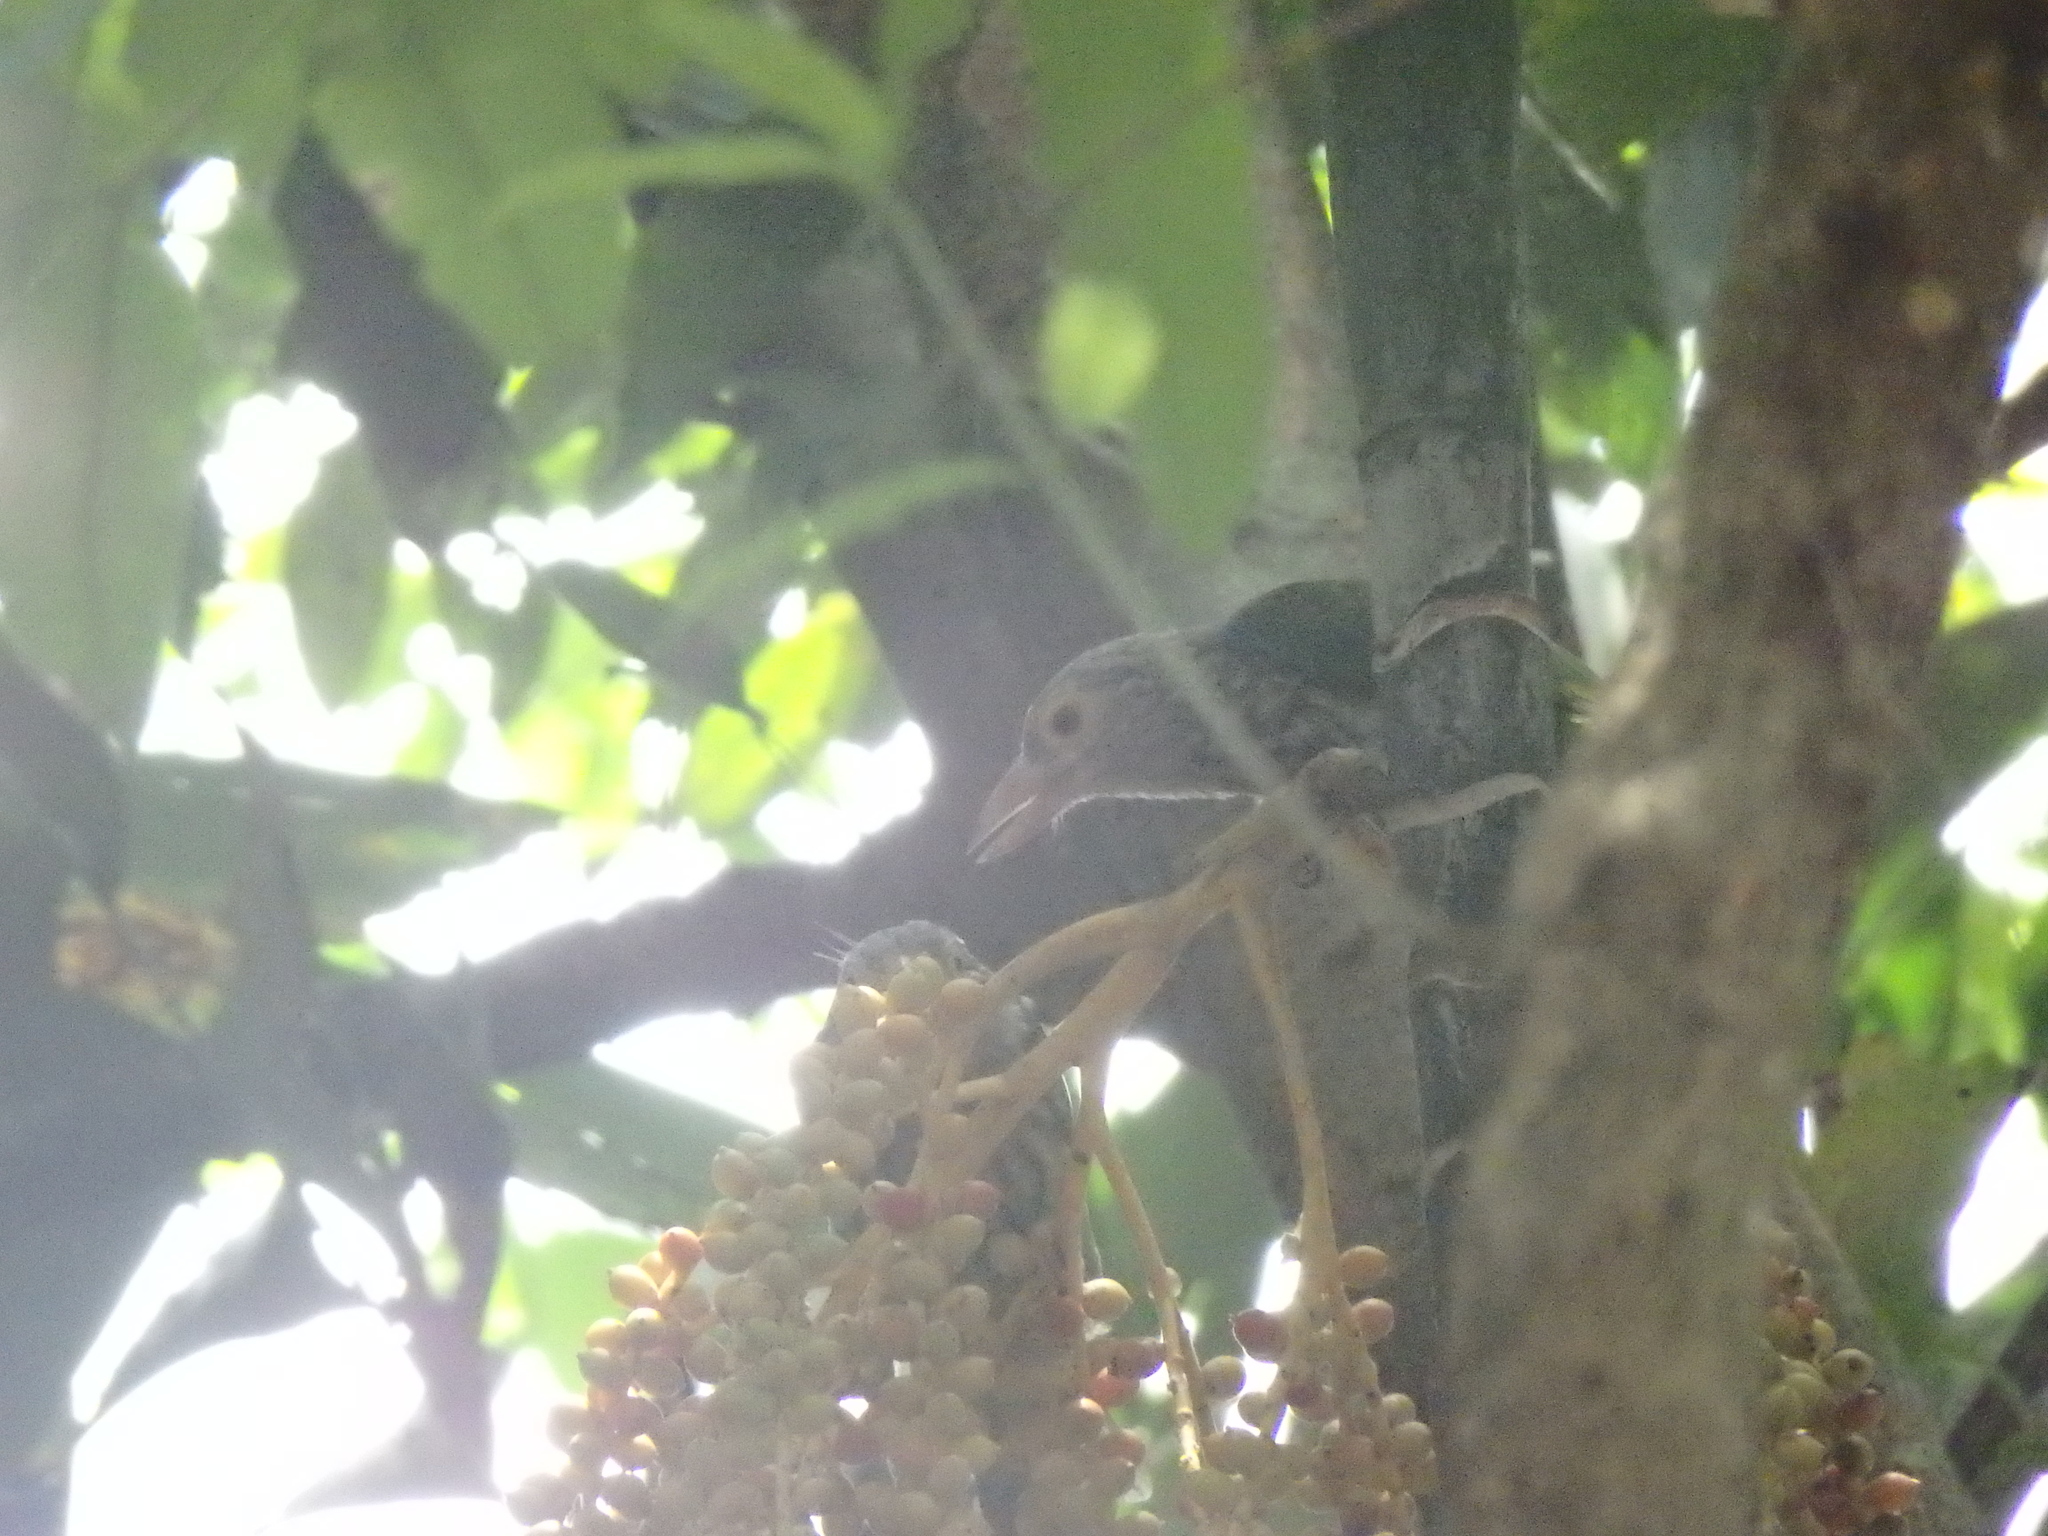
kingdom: Animalia
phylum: Chordata
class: Aves
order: Piciformes
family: Megalaimidae
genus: Psilopogon
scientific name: Psilopogon lineatus
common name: Lineated barbet
